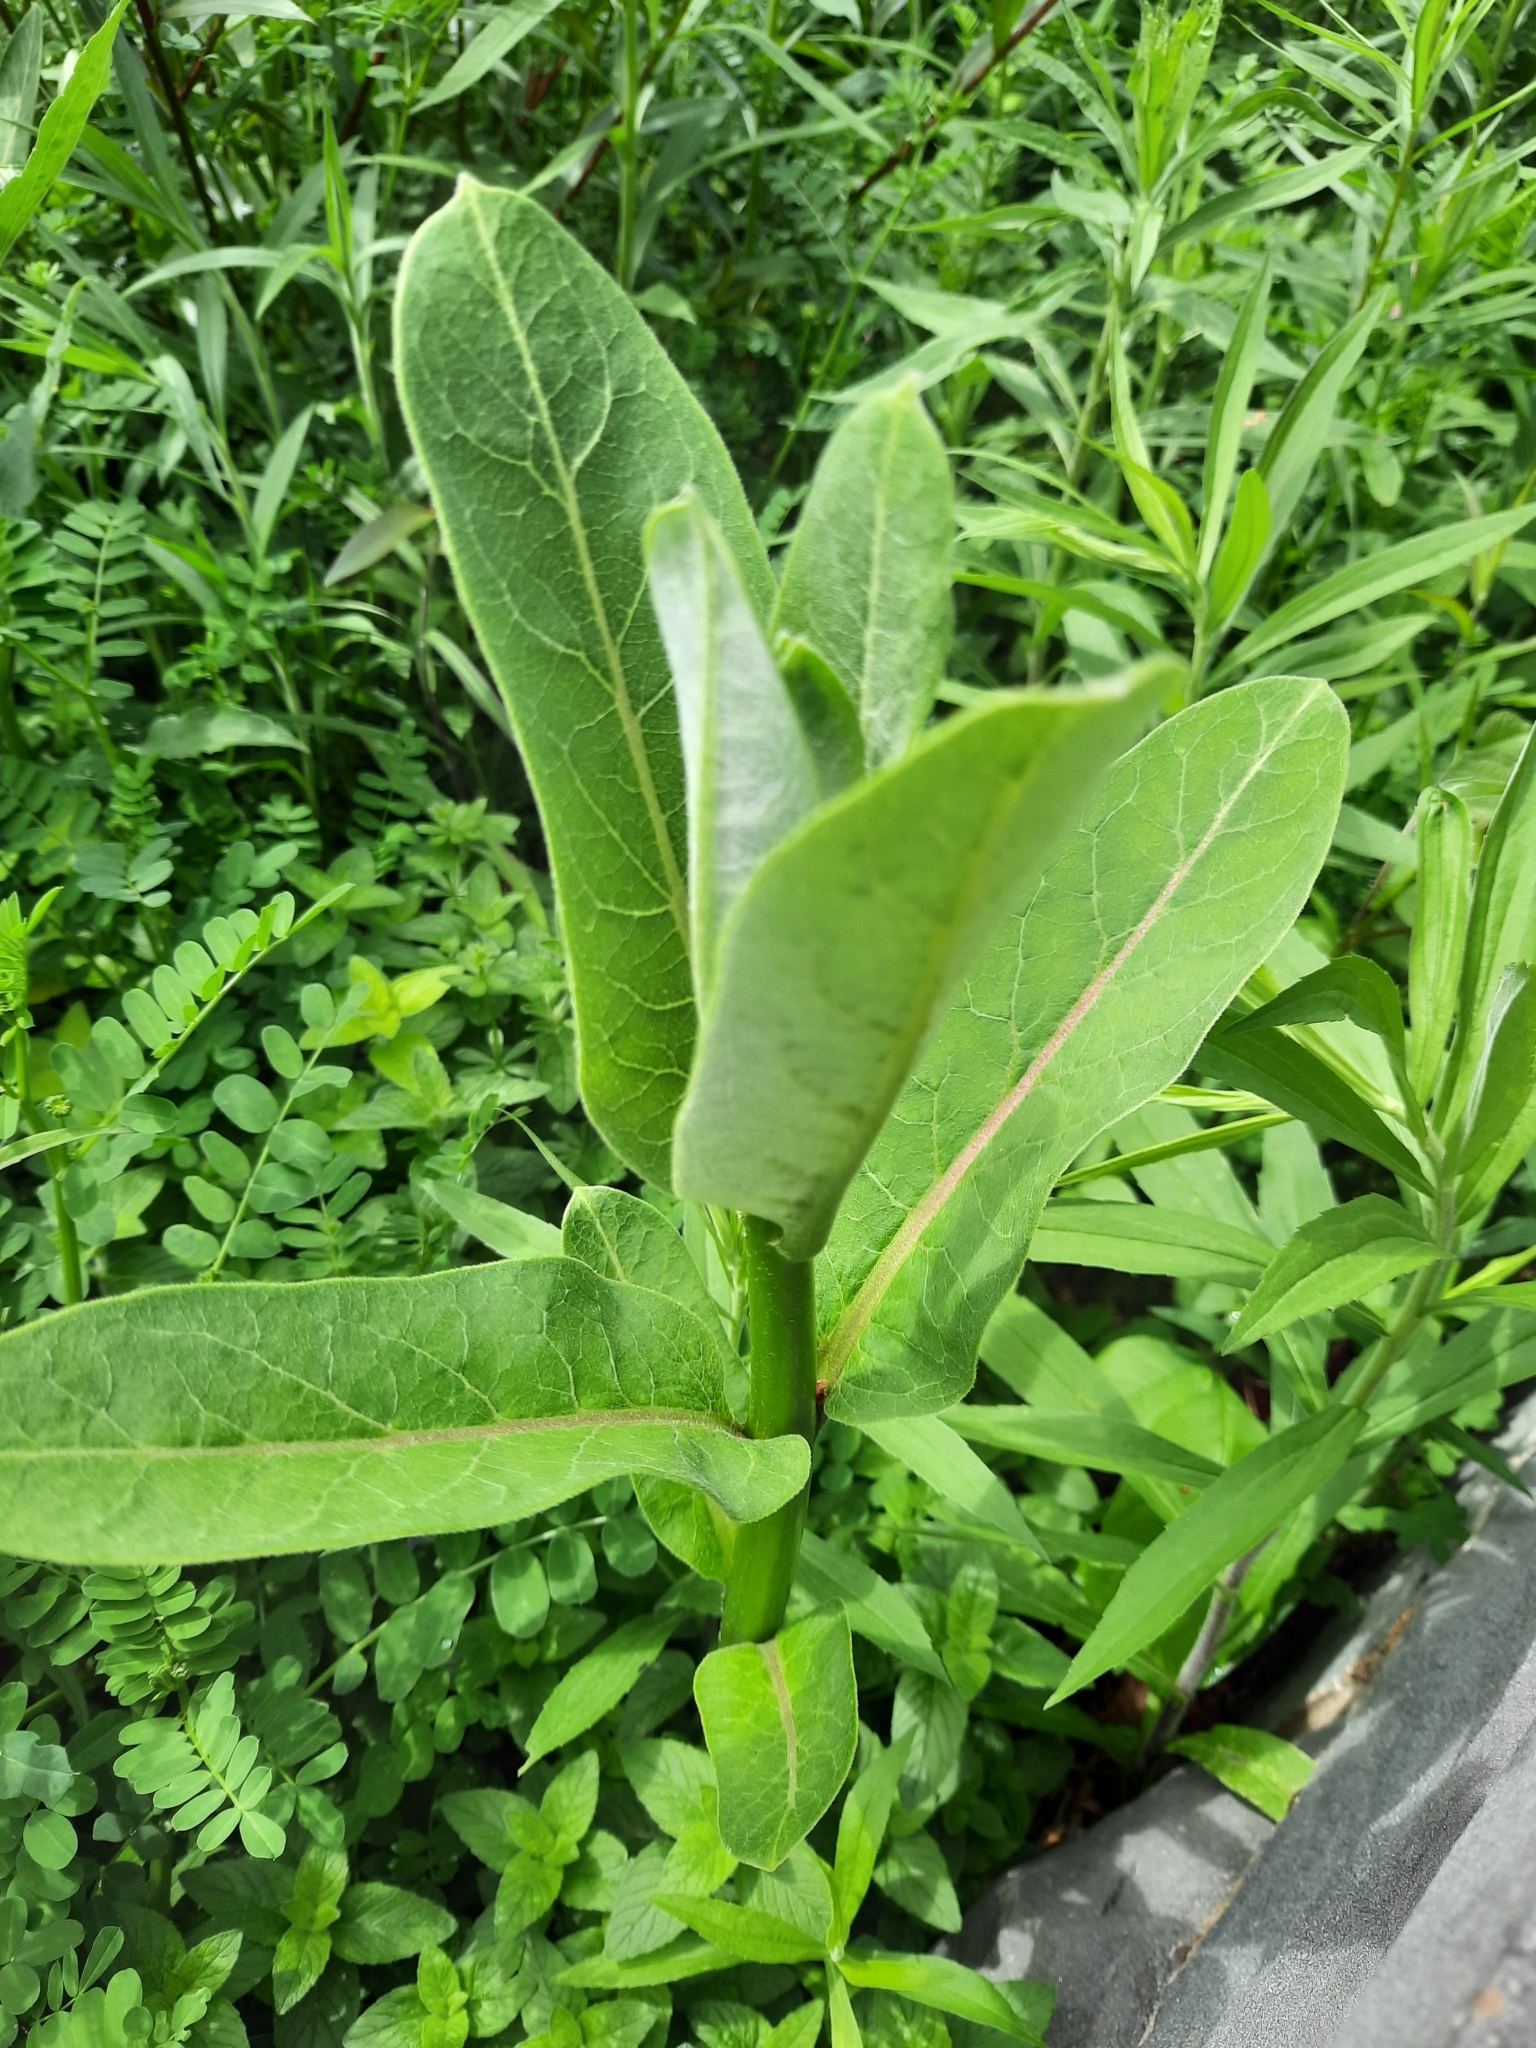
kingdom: Plantae
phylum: Tracheophyta
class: Magnoliopsida
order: Gentianales
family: Apocynaceae
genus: Asclepias
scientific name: Asclepias syriaca
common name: Common milkweed
